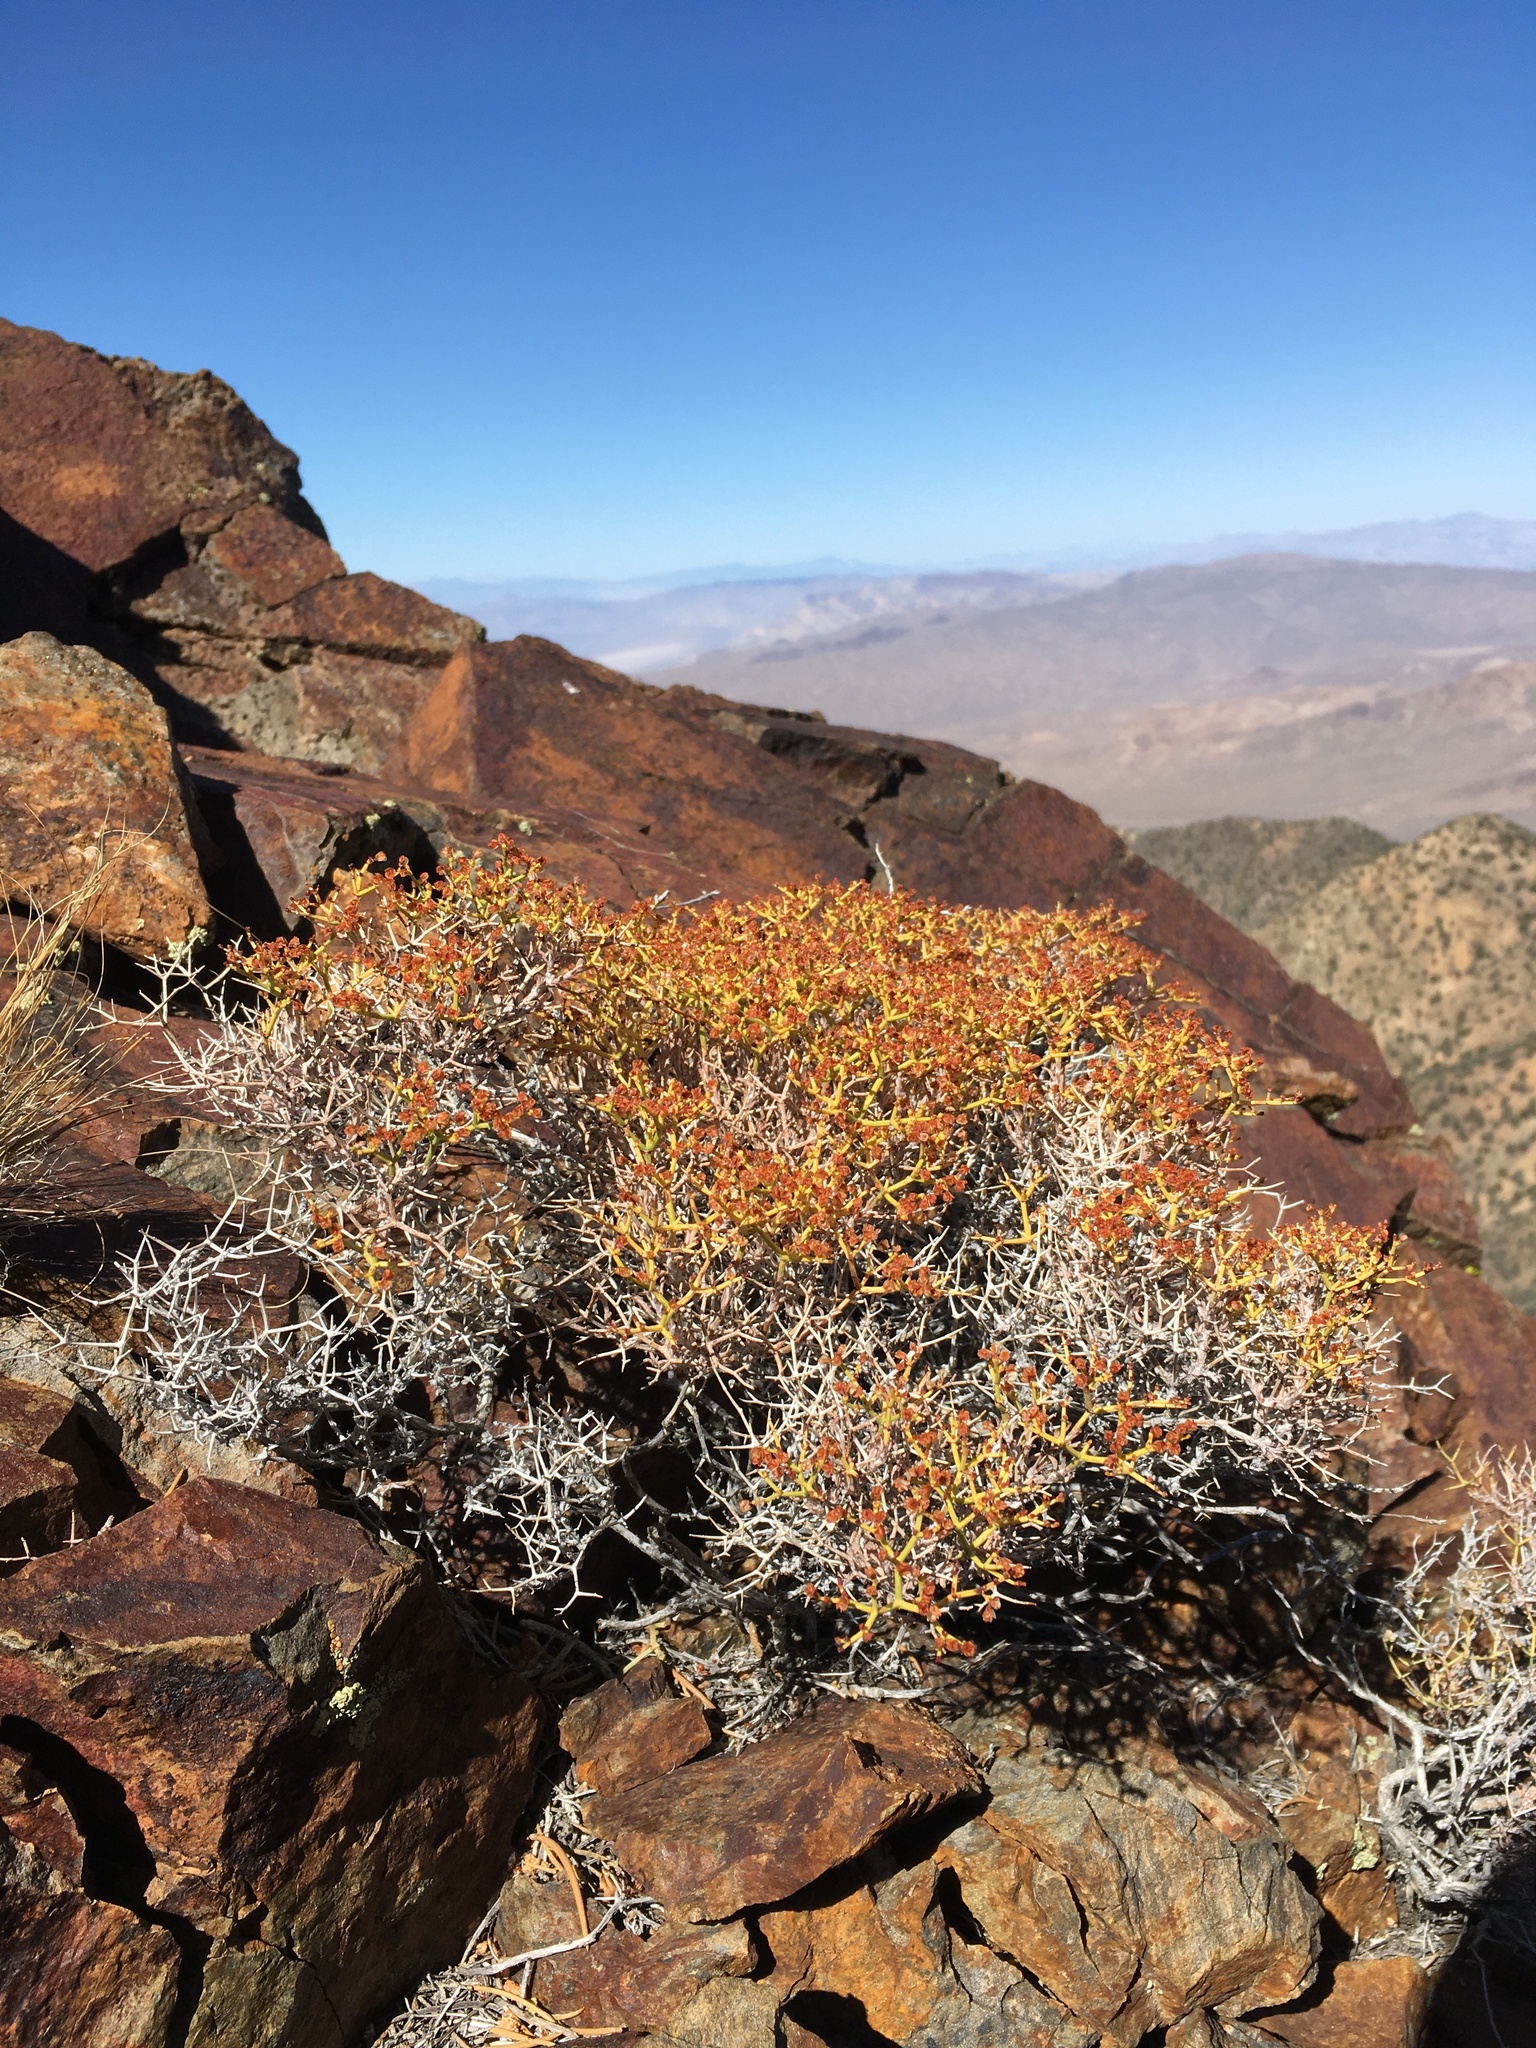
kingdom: Plantae
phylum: Tracheophyta
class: Magnoliopsida
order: Caryophyllales
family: Polygonaceae
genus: Eriogonum
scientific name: Eriogonum heermannii
